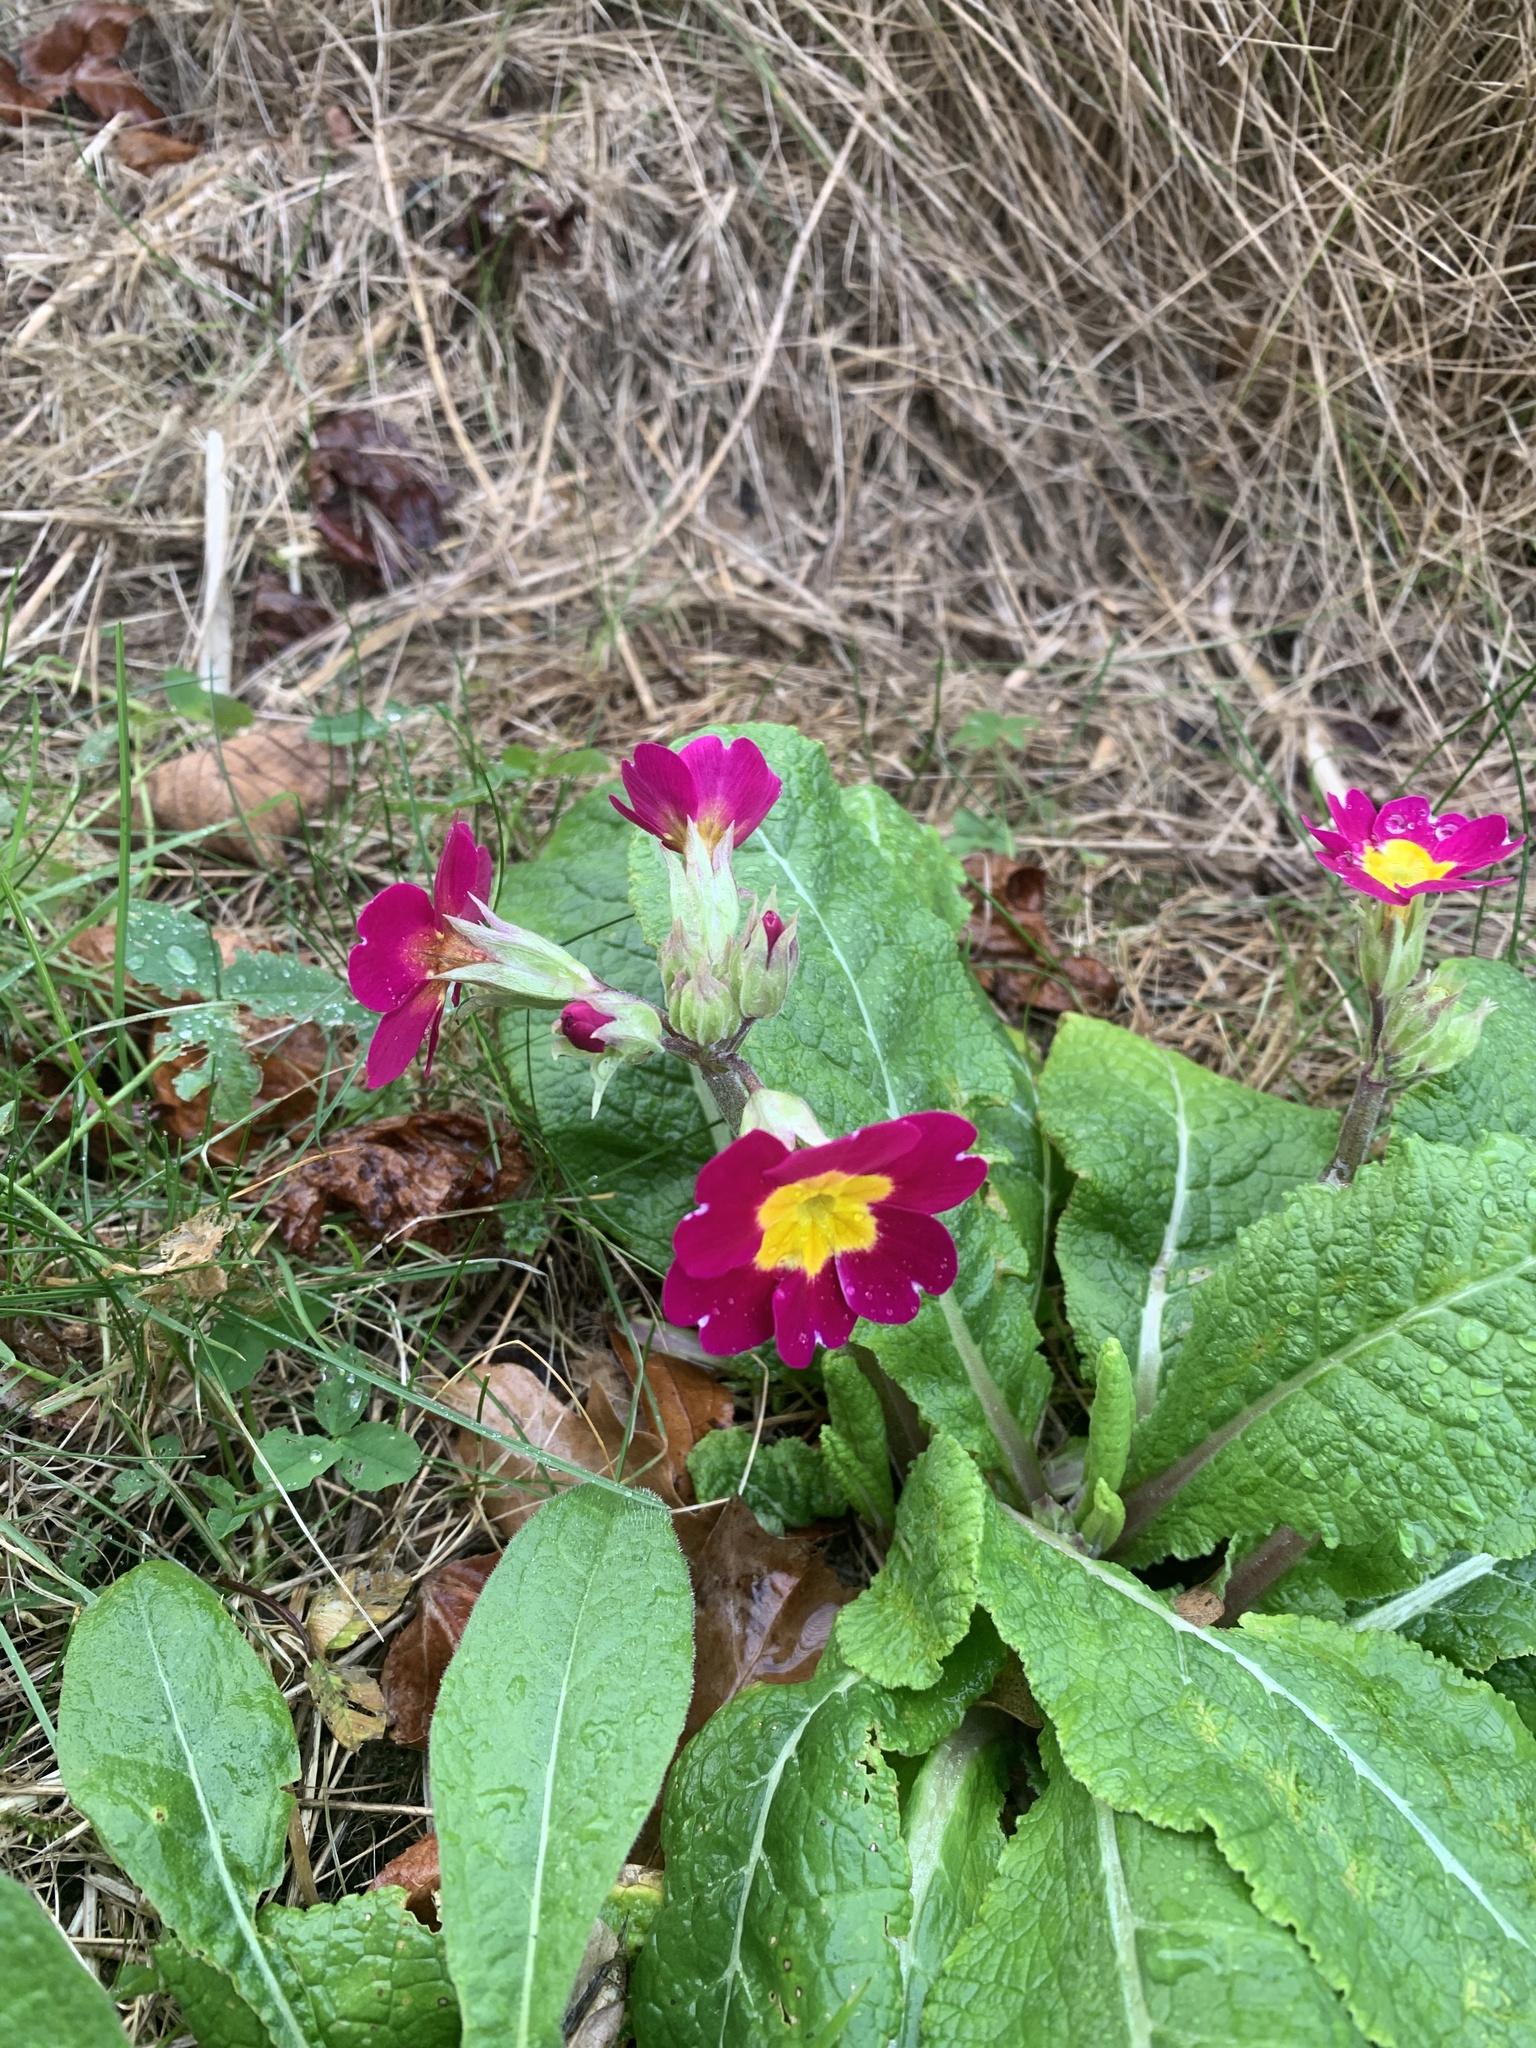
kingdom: Plantae
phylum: Tracheophyta
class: Magnoliopsida
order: Ericales
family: Primulaceae
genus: Primula
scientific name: Primula vulgaris
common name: Primrose
